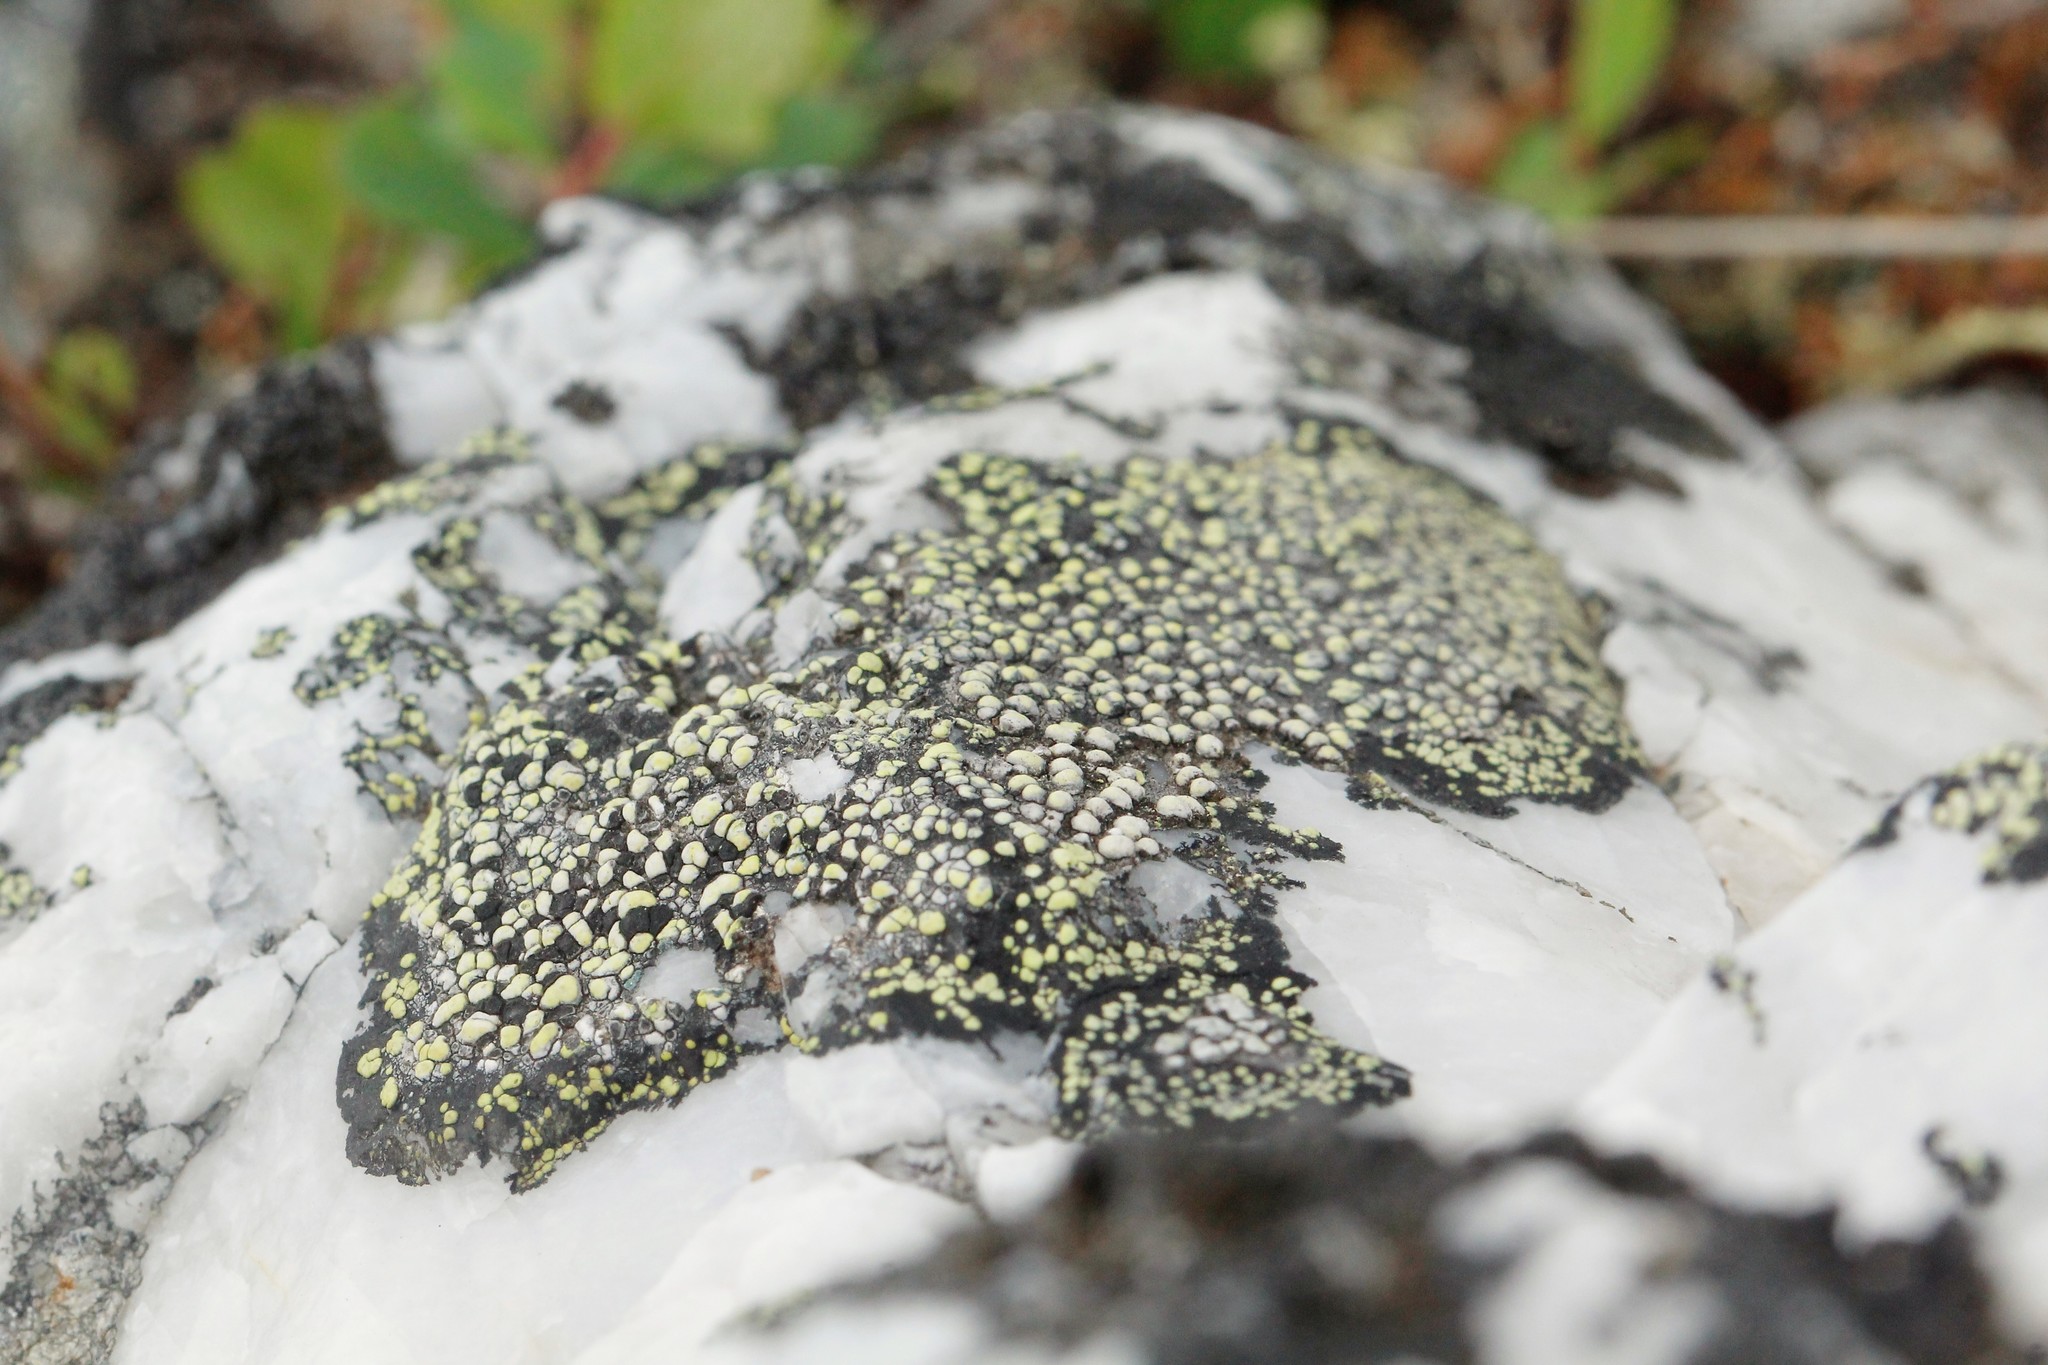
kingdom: Fungi
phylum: Ascomycota
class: Lecanoromycetes
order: Rhizocarpales
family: Rhizocarpaceae
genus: Rhizocarpon
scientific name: Rhizocarpon geographicum
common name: Yellow map lichen
